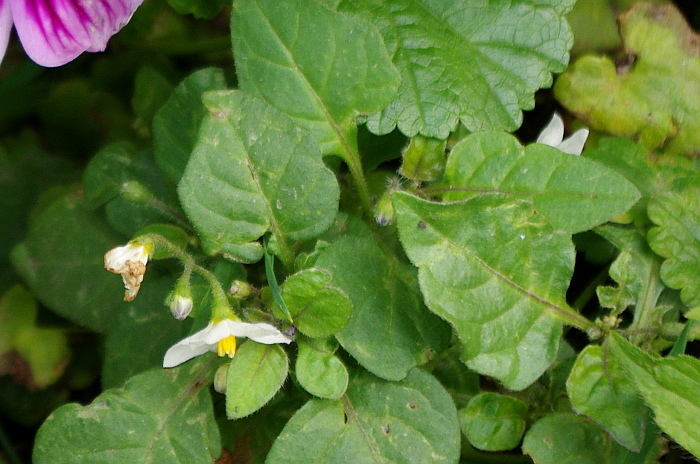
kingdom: Plantae
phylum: Tracheophyta
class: Magnoliopsida
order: Solanales
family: Solanaceae
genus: Solanum
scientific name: Solanum nigrum
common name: Black nightshade
